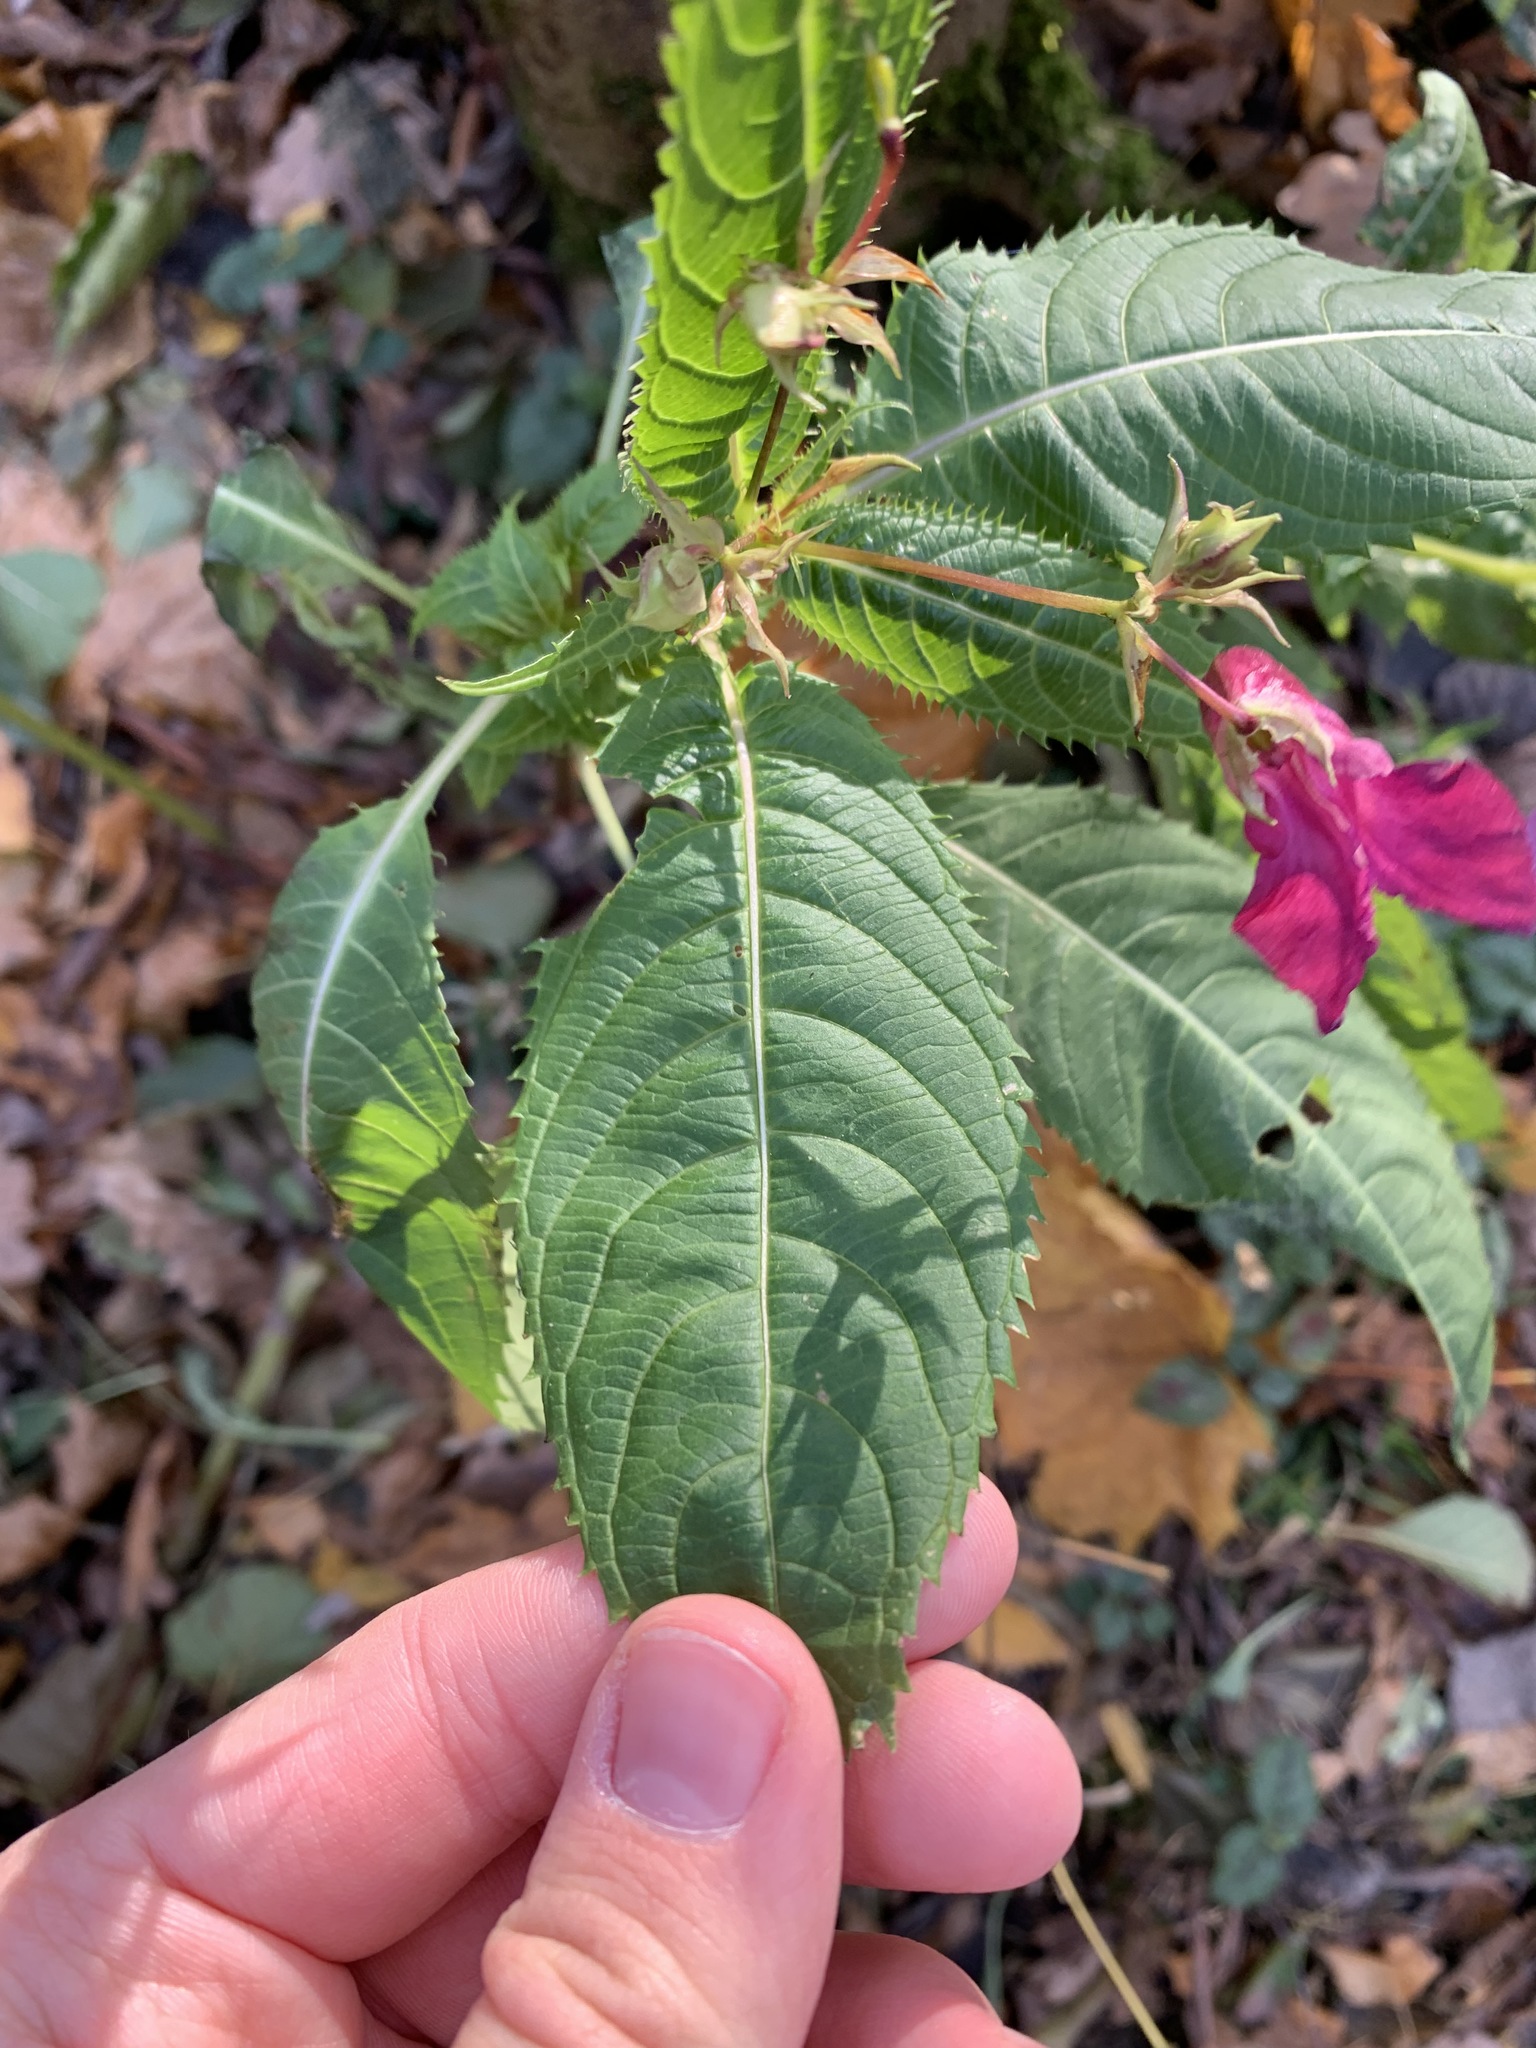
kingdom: Plantae
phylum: Tracheophyta
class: Magnoliopsida
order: Ericales
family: Balsaminaceae
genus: Impatiens
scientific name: Impatiens glandulifera
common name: Himalayan balsam
